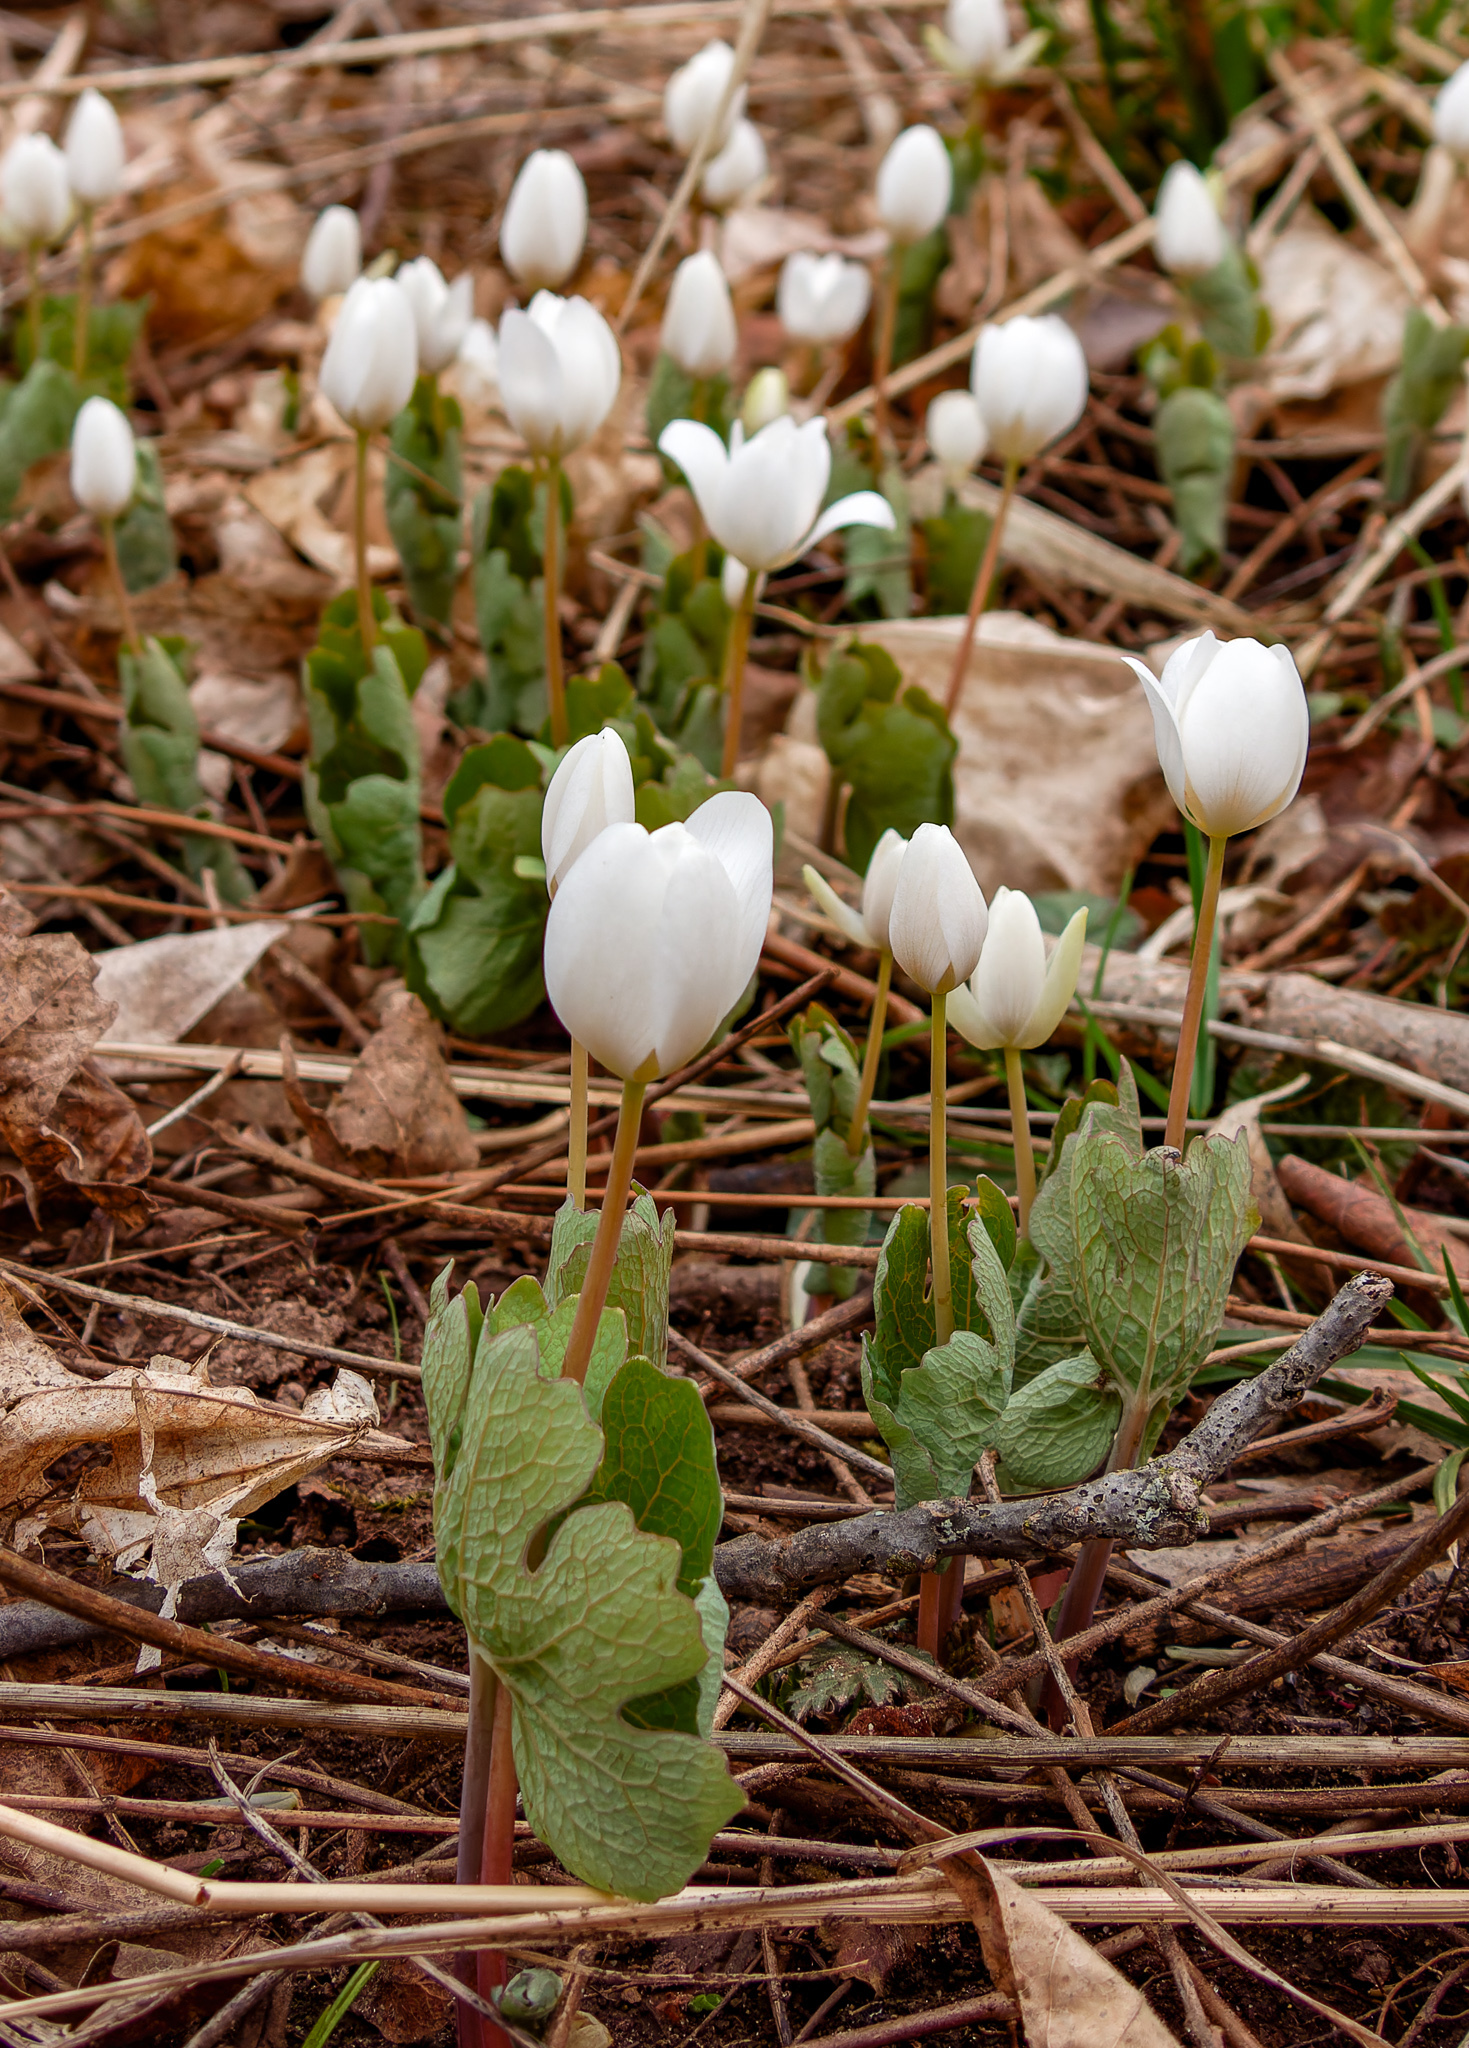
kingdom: Plantae
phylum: Tracheophyta
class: Magnoliopsida
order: Ranunculales
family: Papaveraceae
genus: Sanguinaria
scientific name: Sanguinaria canadensis
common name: Bloodroot
